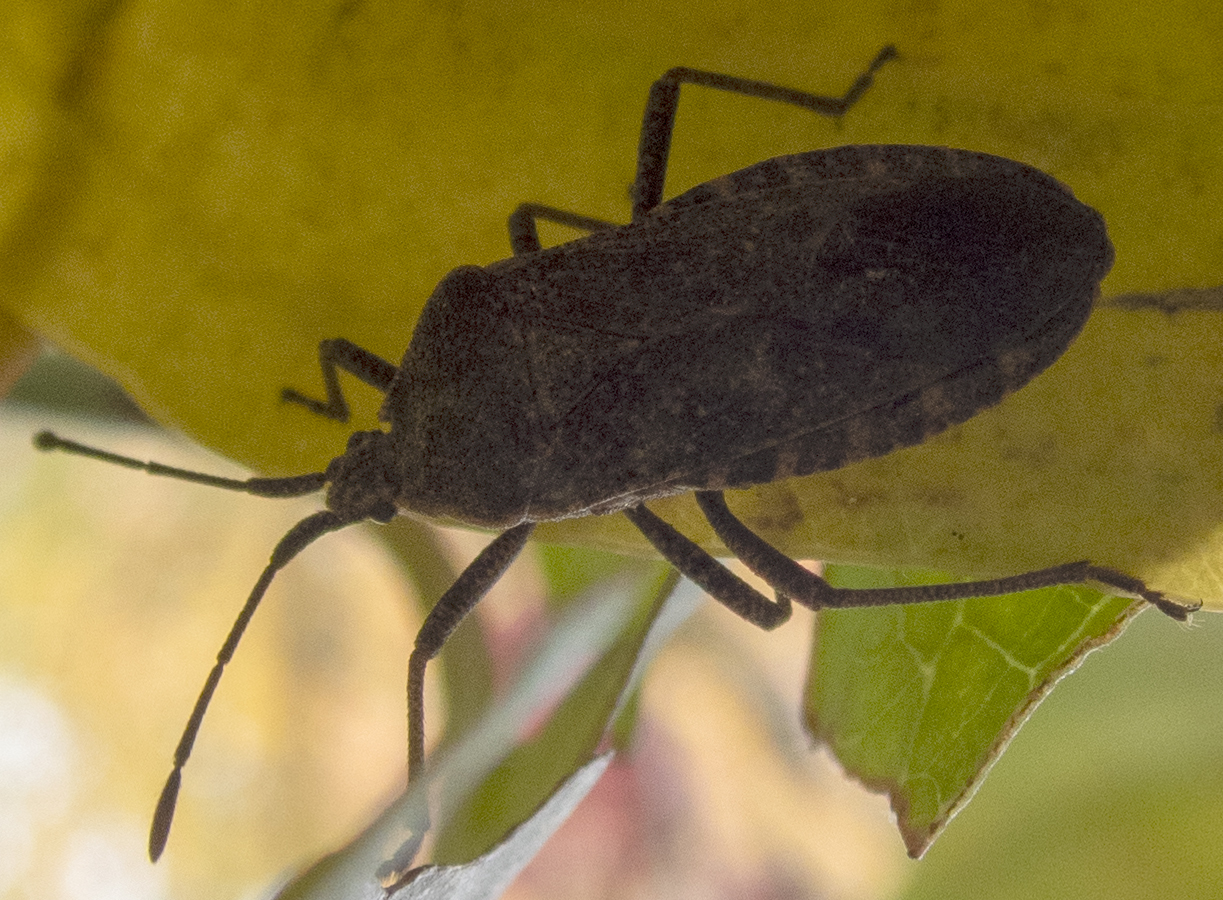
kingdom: Animalia
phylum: Arthropoda
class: Insecta
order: Hemiptera
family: Coreidae
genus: Anasa
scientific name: Anasa tristis
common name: Squash bug
